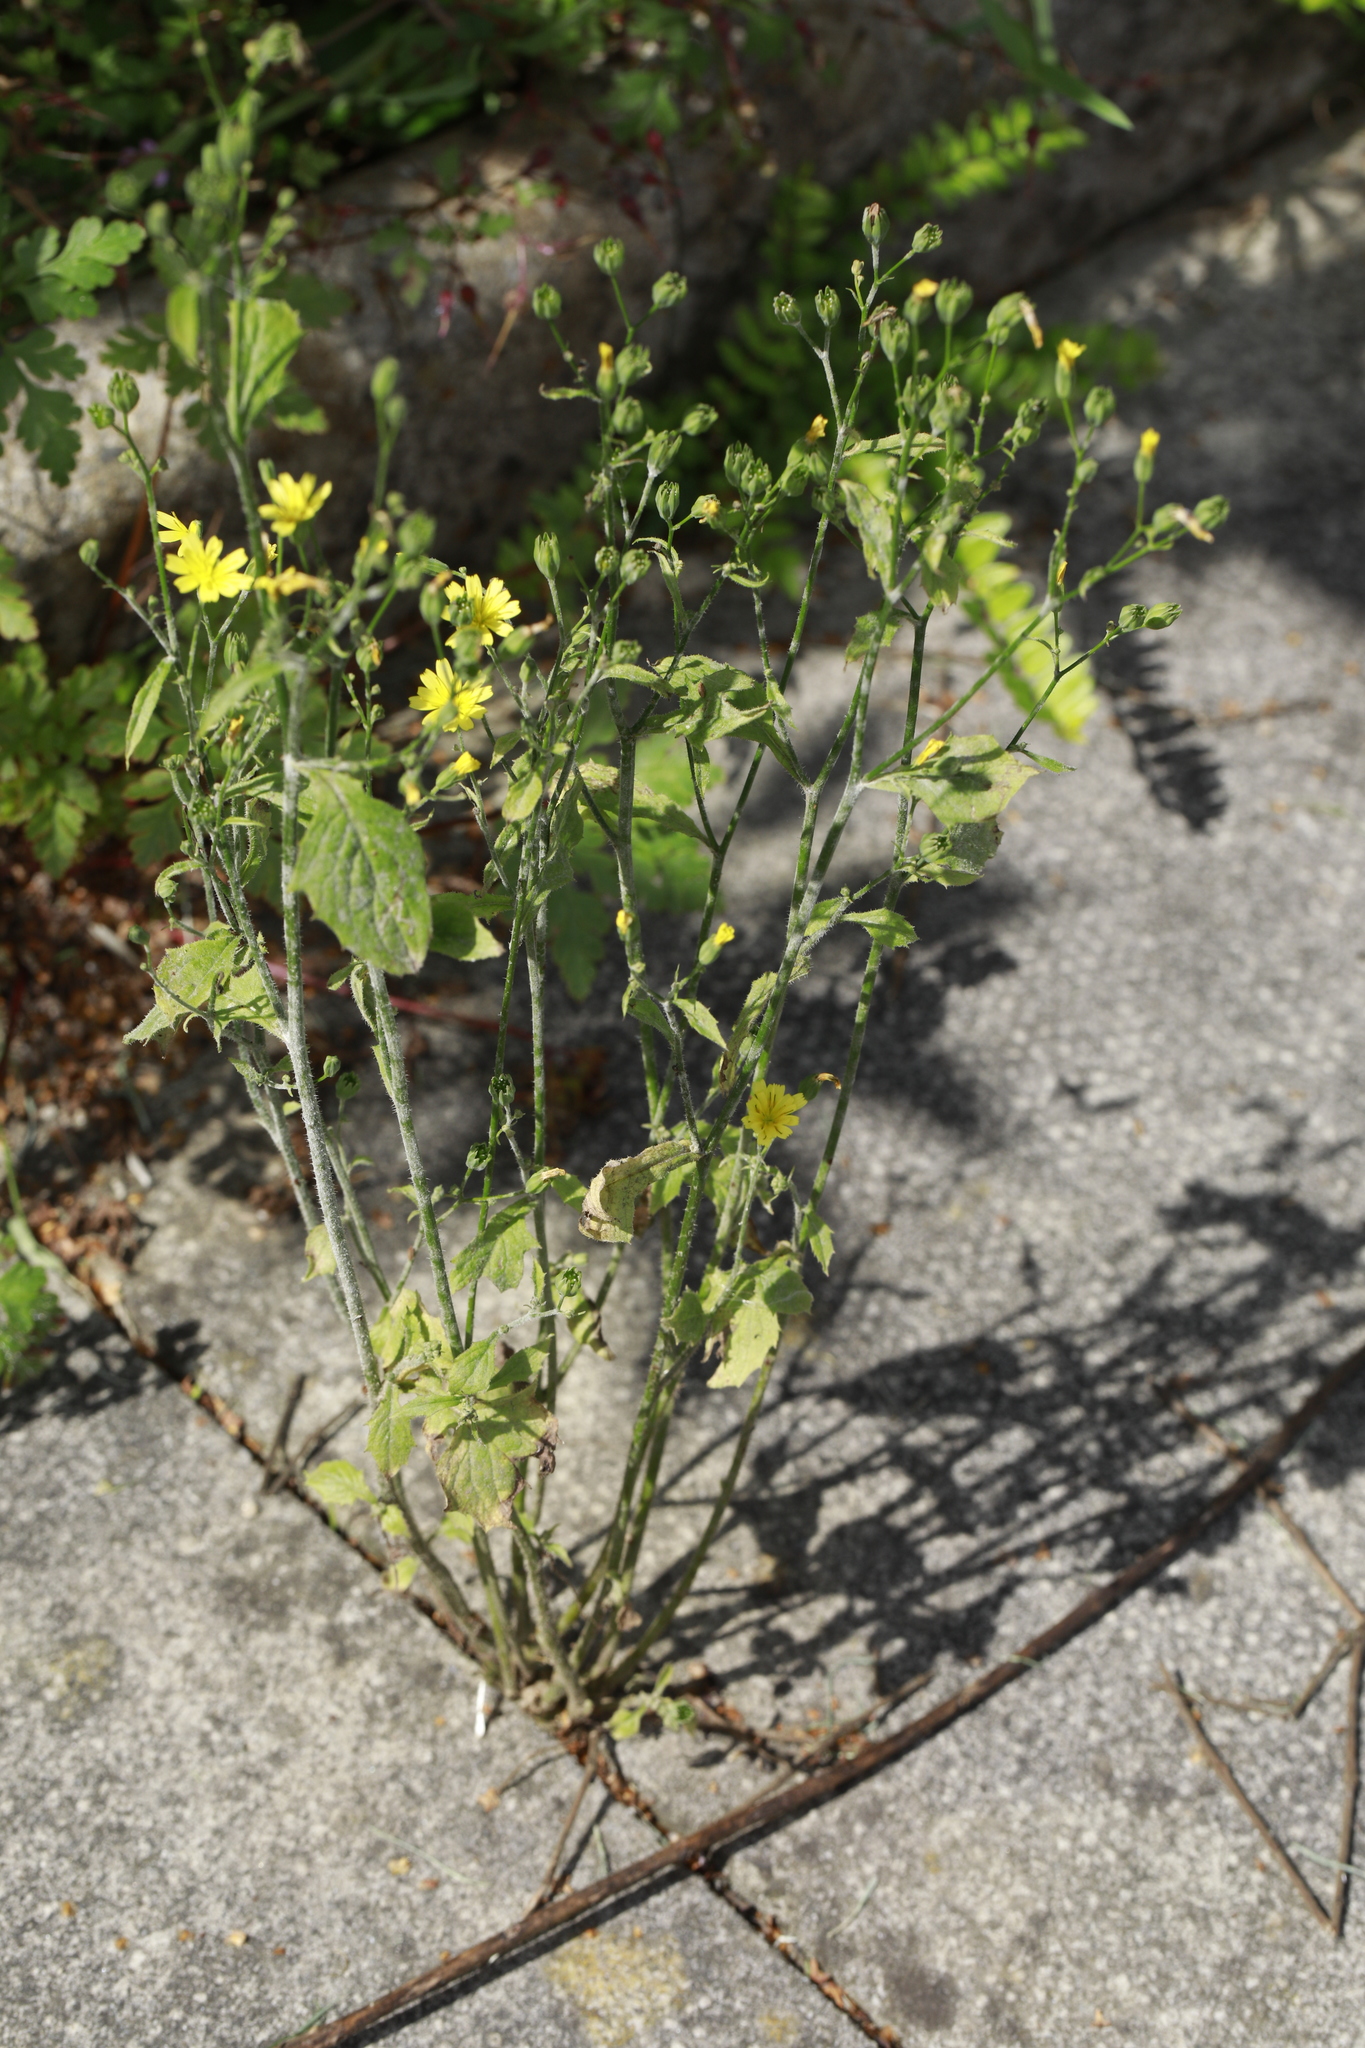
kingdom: Plantae
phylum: Tracheophyta
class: Magnoliopsida
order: Asterales
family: Asteraceae
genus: Lapsana
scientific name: Lapsana communis
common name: Nipplewort
